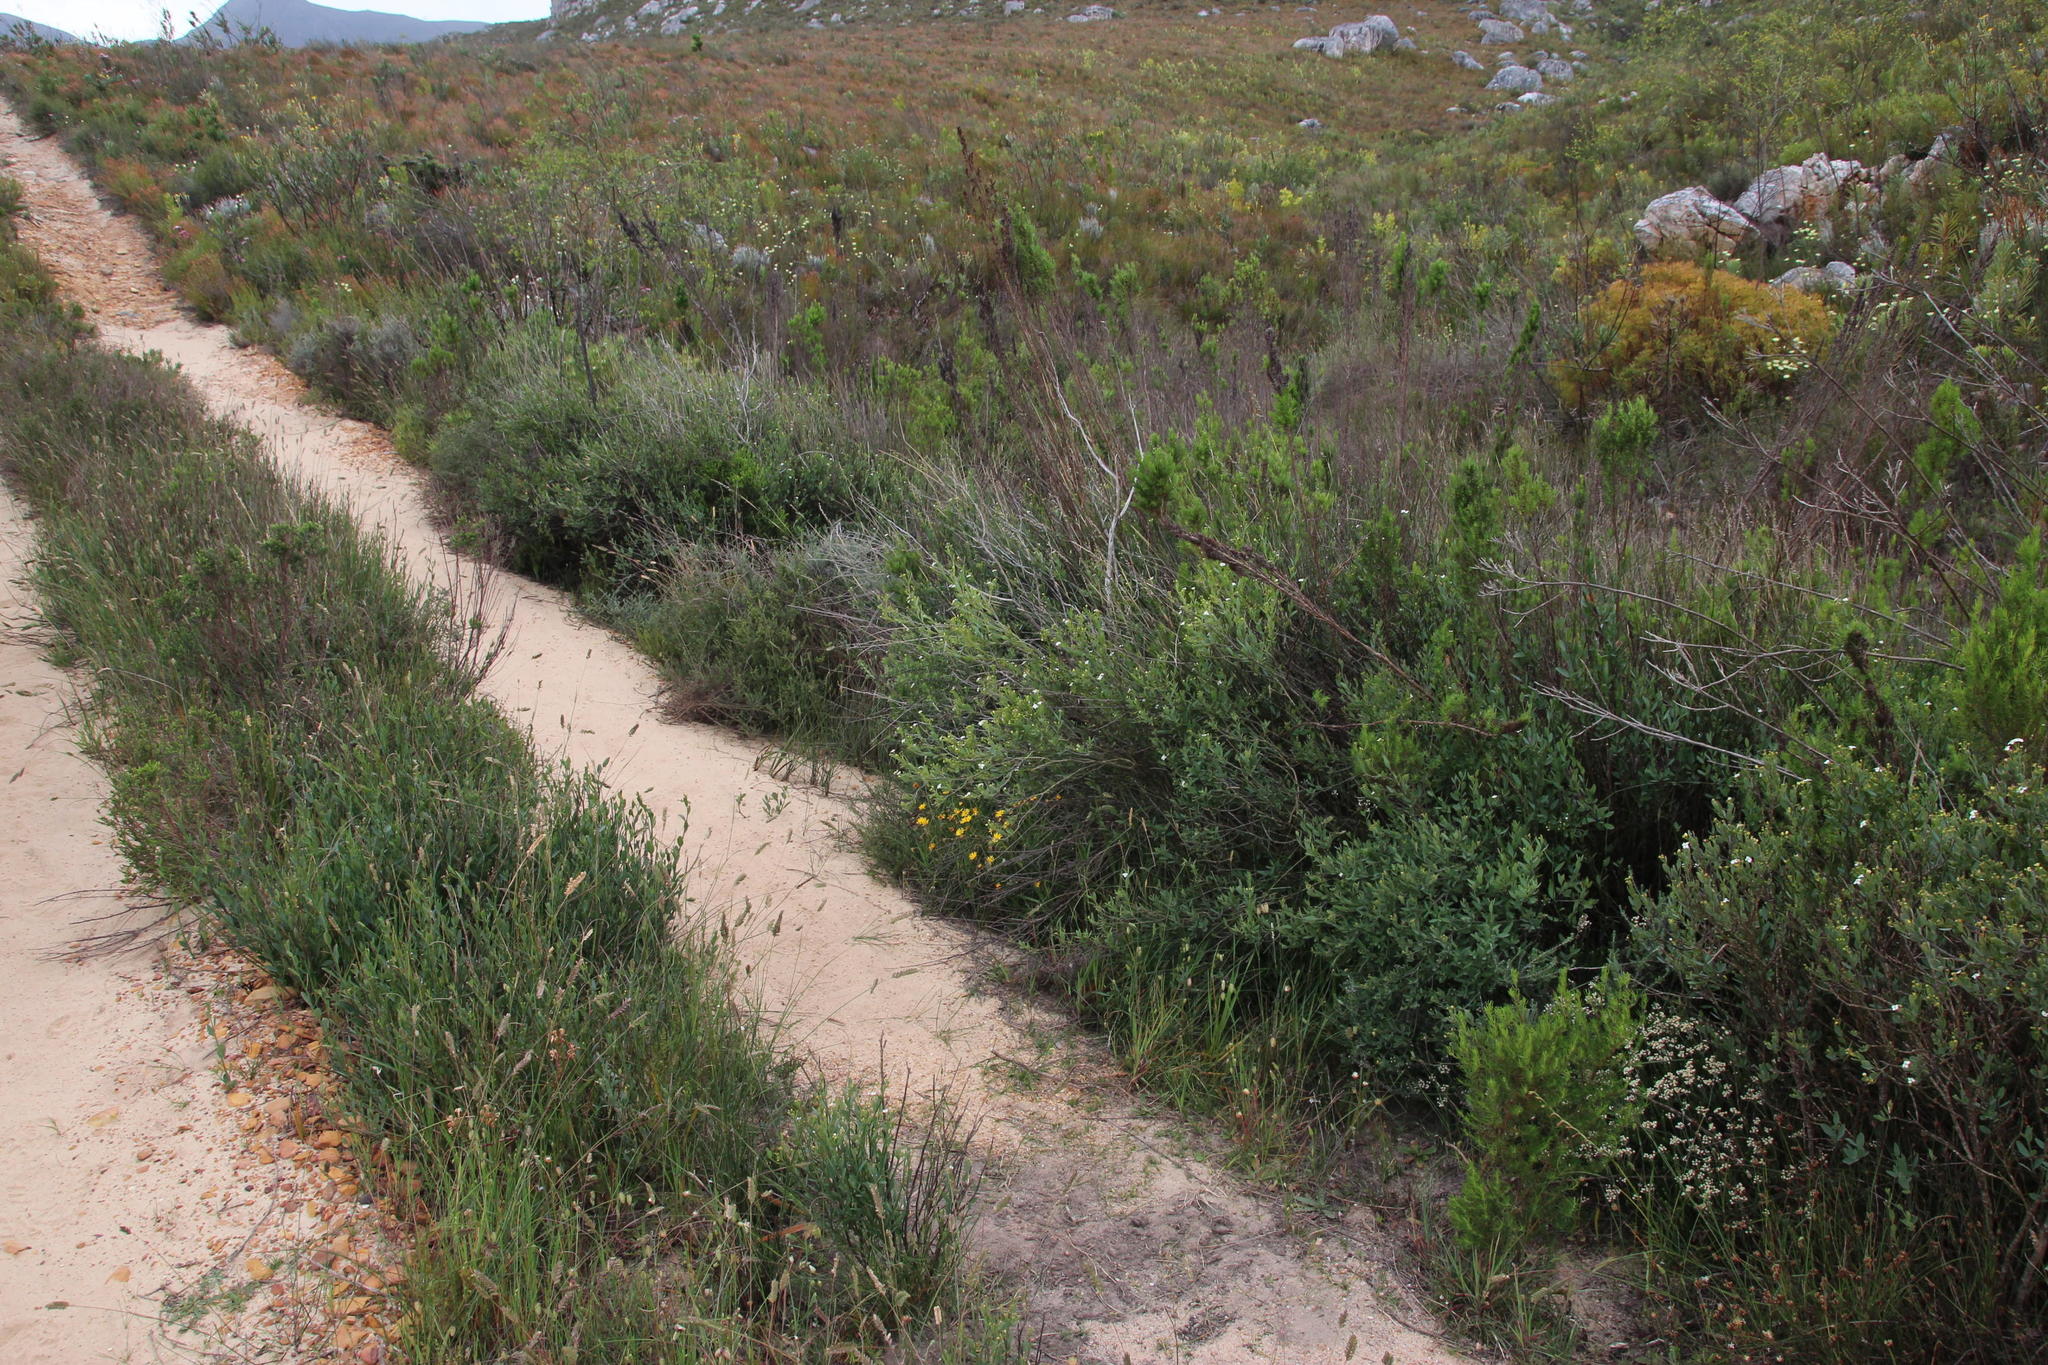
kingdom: Plantae
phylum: Tracheophyta
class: Magnoliopsida
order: Solanales
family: Montiniaceae
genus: Montinia
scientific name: Montinia caryophyllacea
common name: Wild clove-bush
